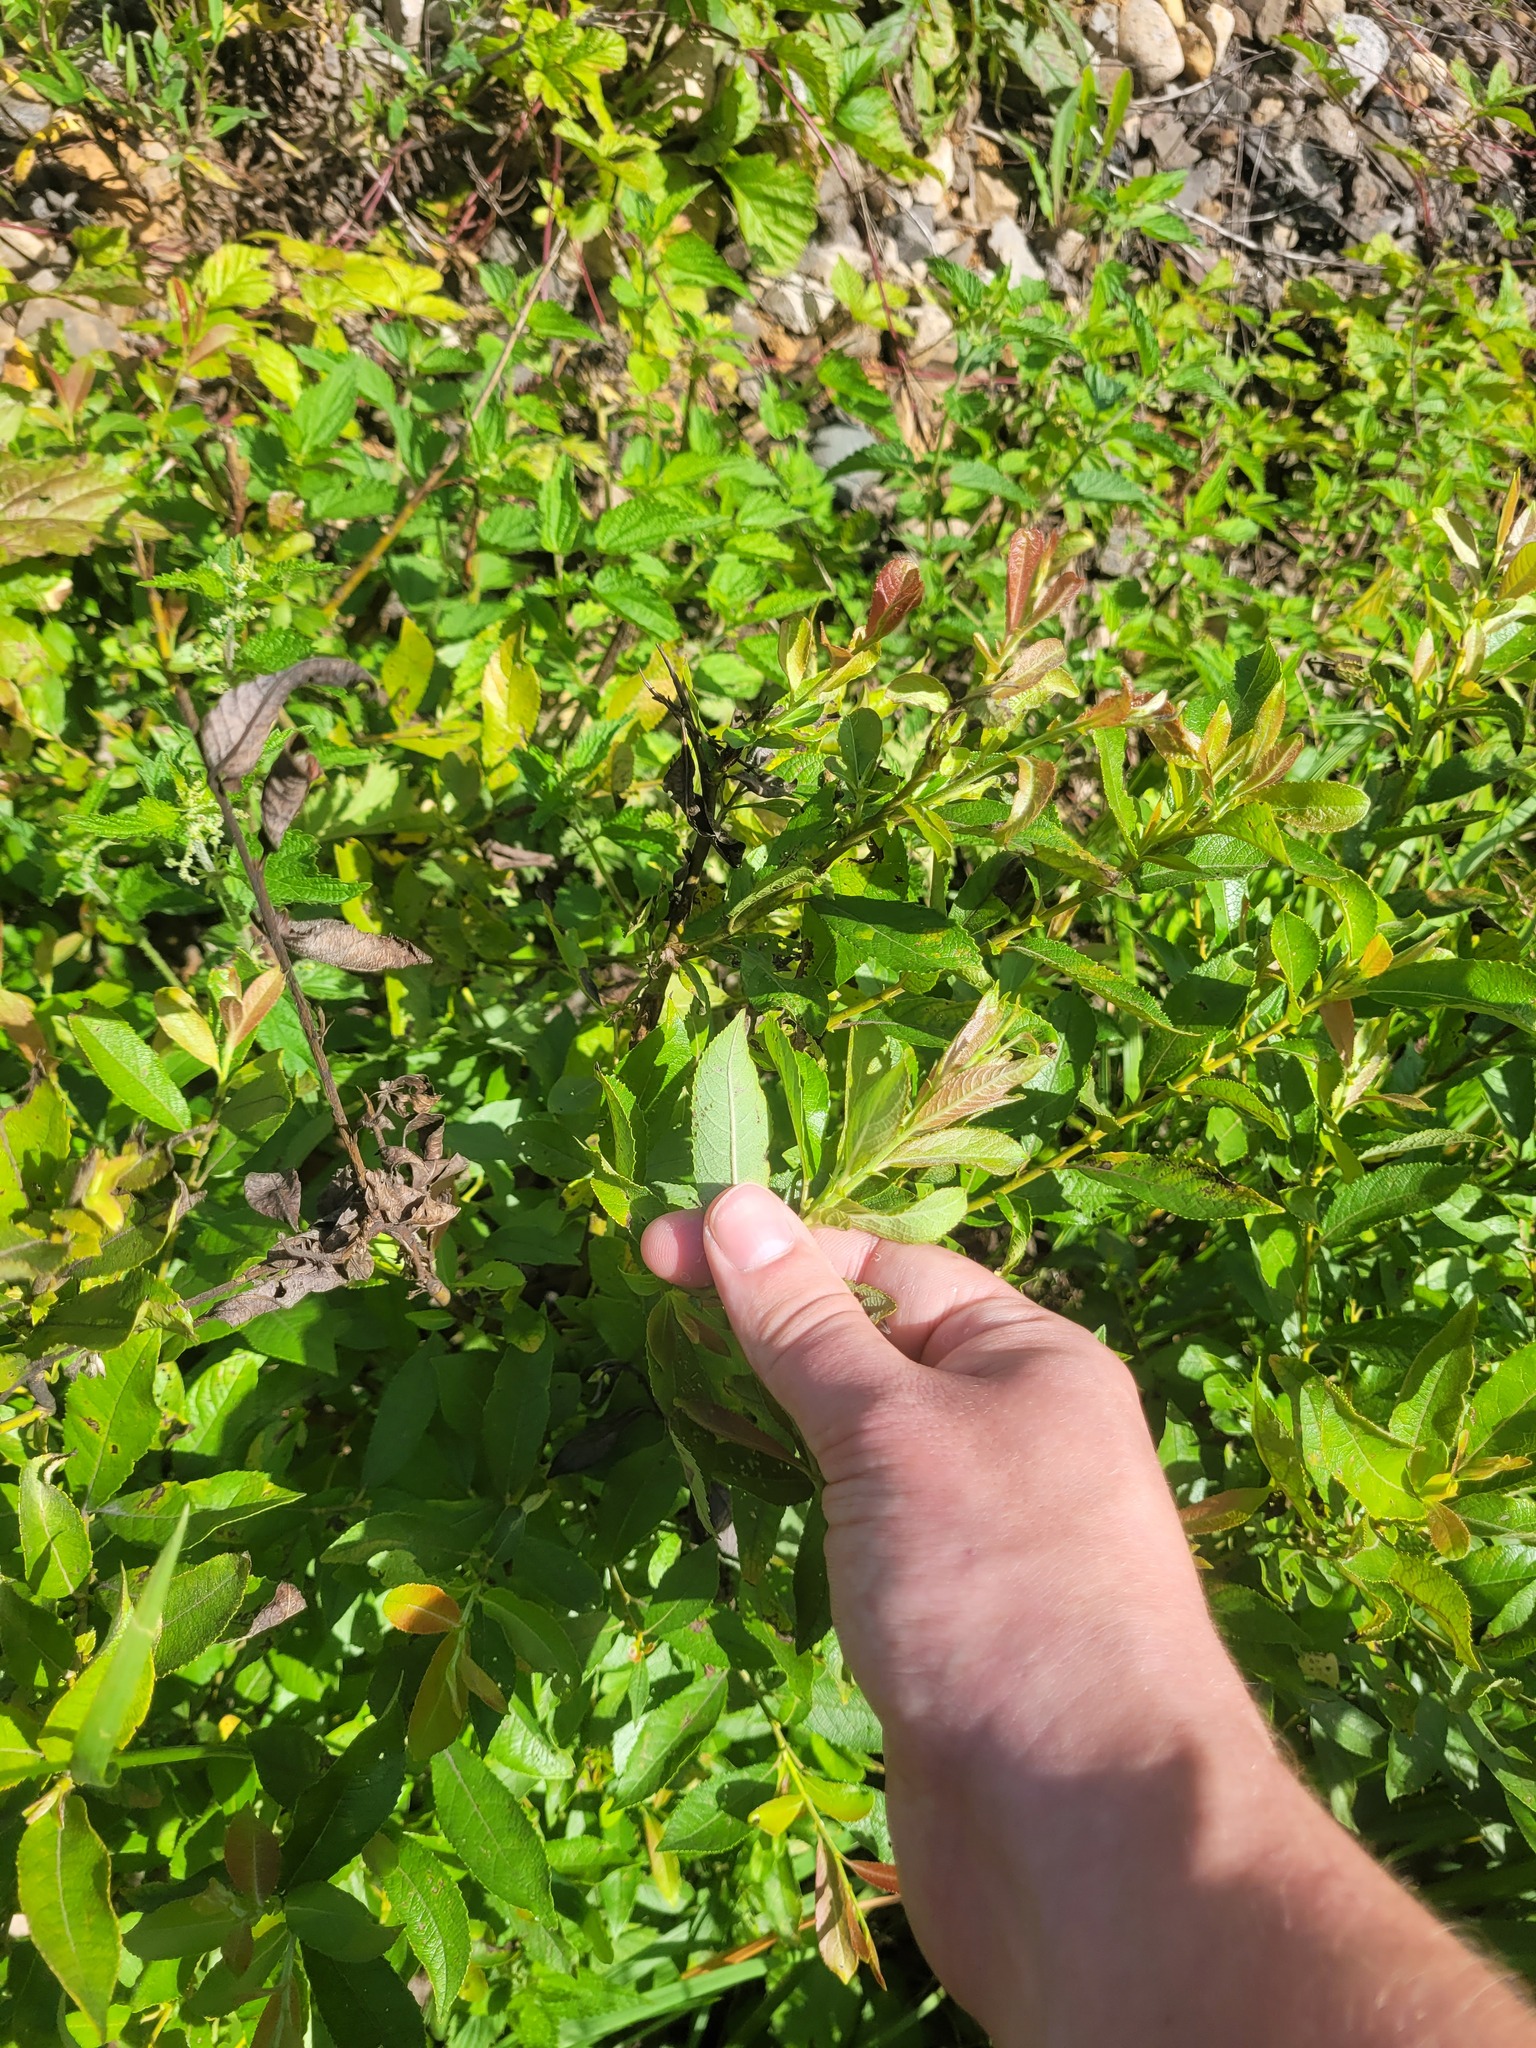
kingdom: Plantae
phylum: Tracheophyta
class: Magnoliopsida
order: Malpighiales
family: Salicaceae
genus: Salix
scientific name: Salix myrsinifolia
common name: Dark-leaved willow
